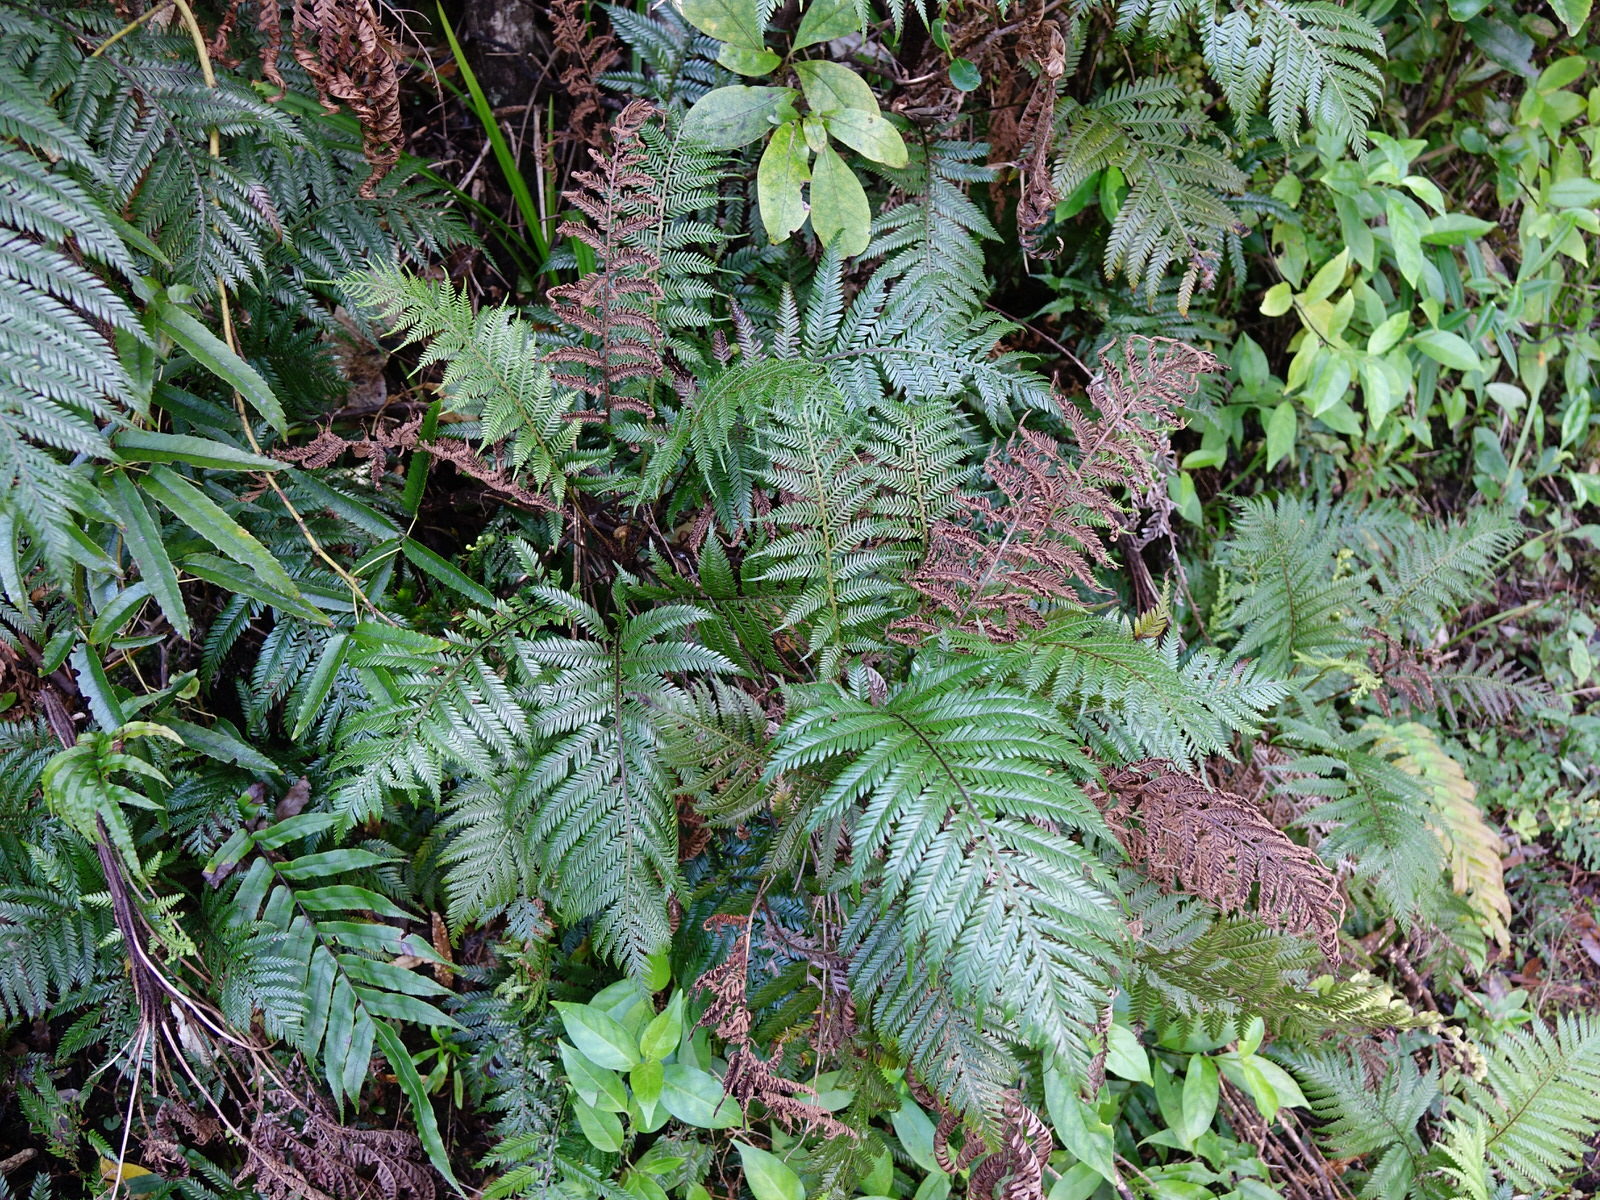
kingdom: Plantae
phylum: Tracheophyta
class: Polypodiopsida
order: Polypodiales
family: Blechnaceae
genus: Diploblechnum
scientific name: Diploblechnum fraseri
